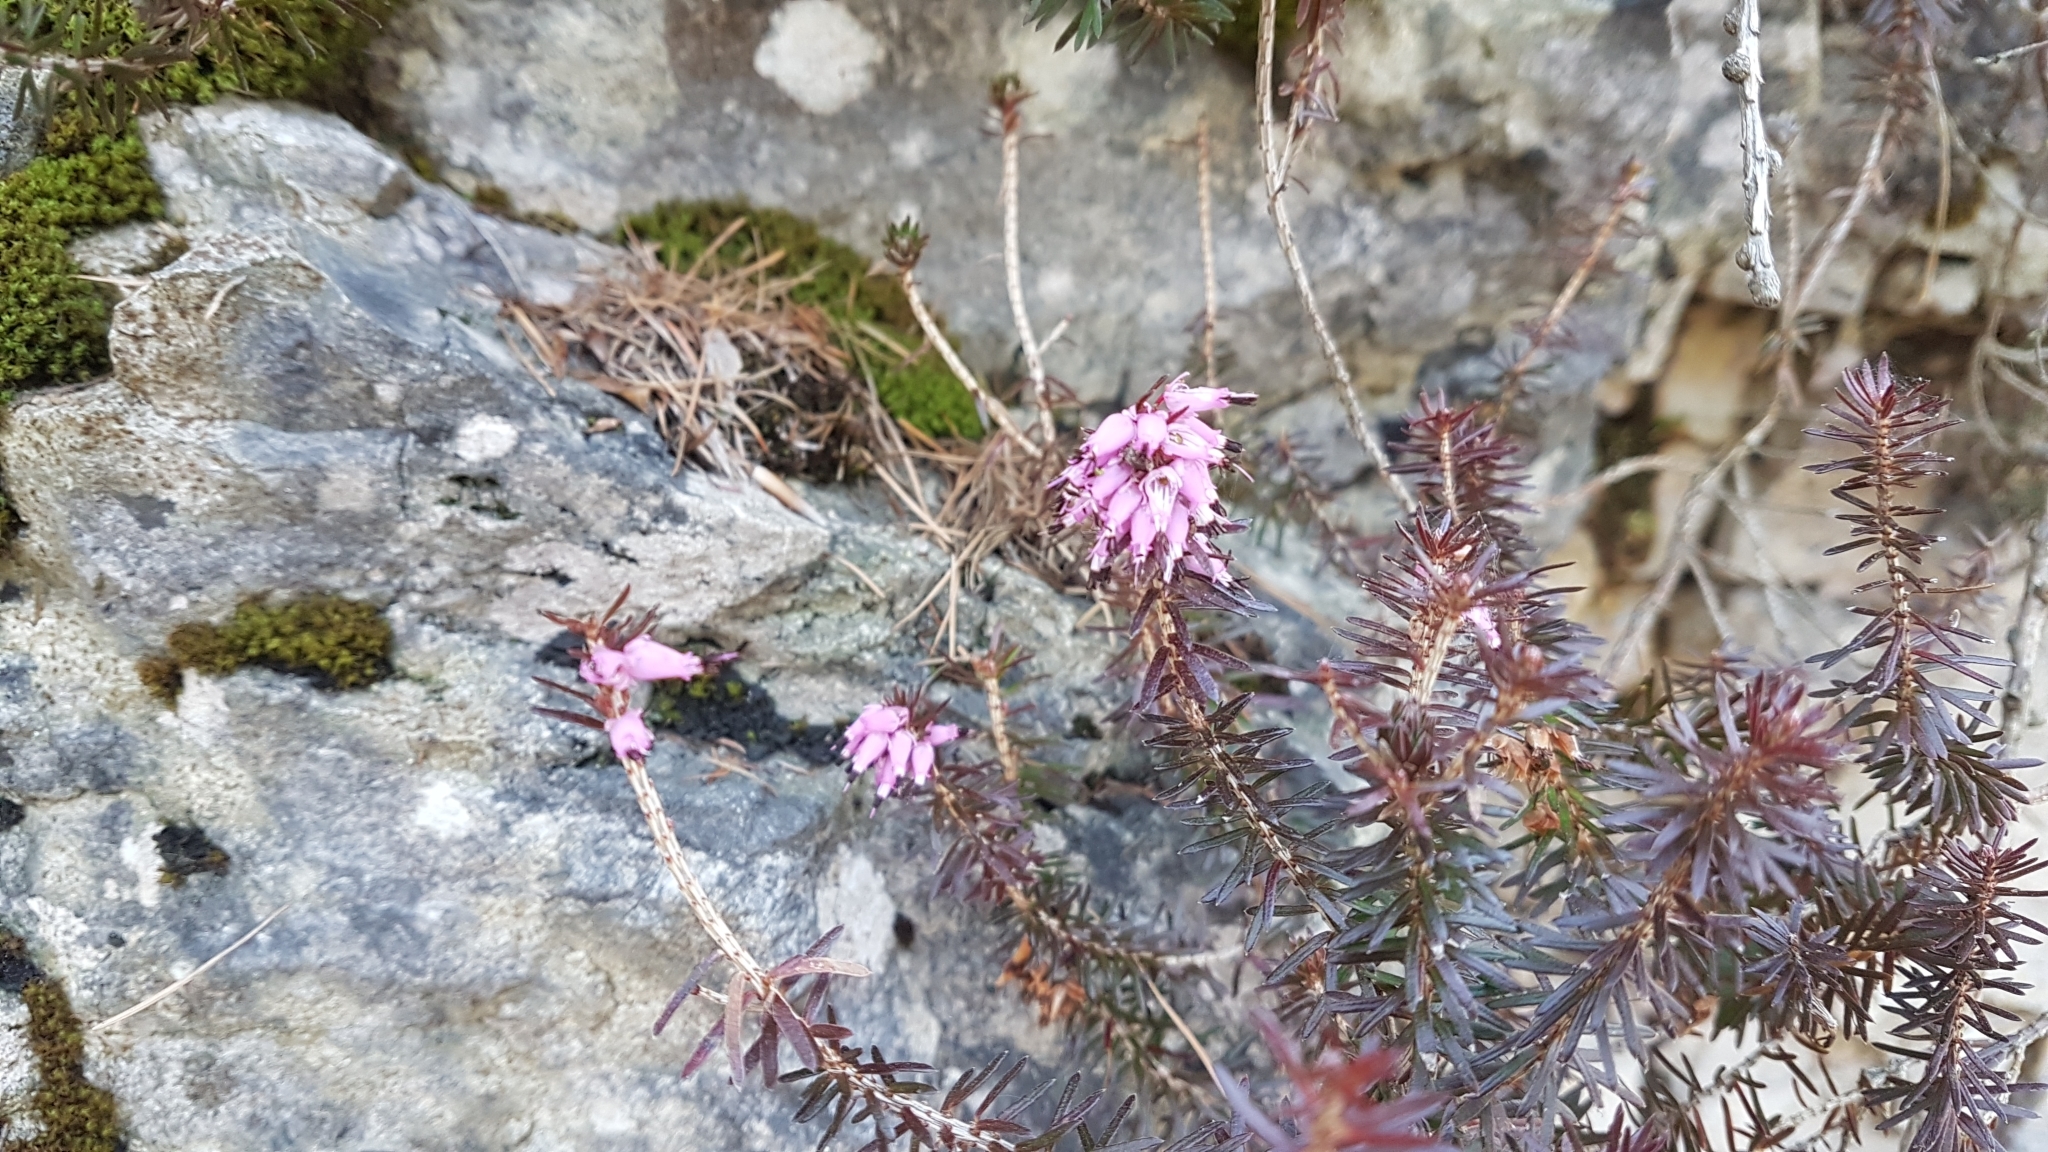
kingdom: Plantae
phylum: Tracheophyta
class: Magnoliopsida
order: Ericales
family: Ericaceae
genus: Erica
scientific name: Erica carnea
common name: Winter heath
